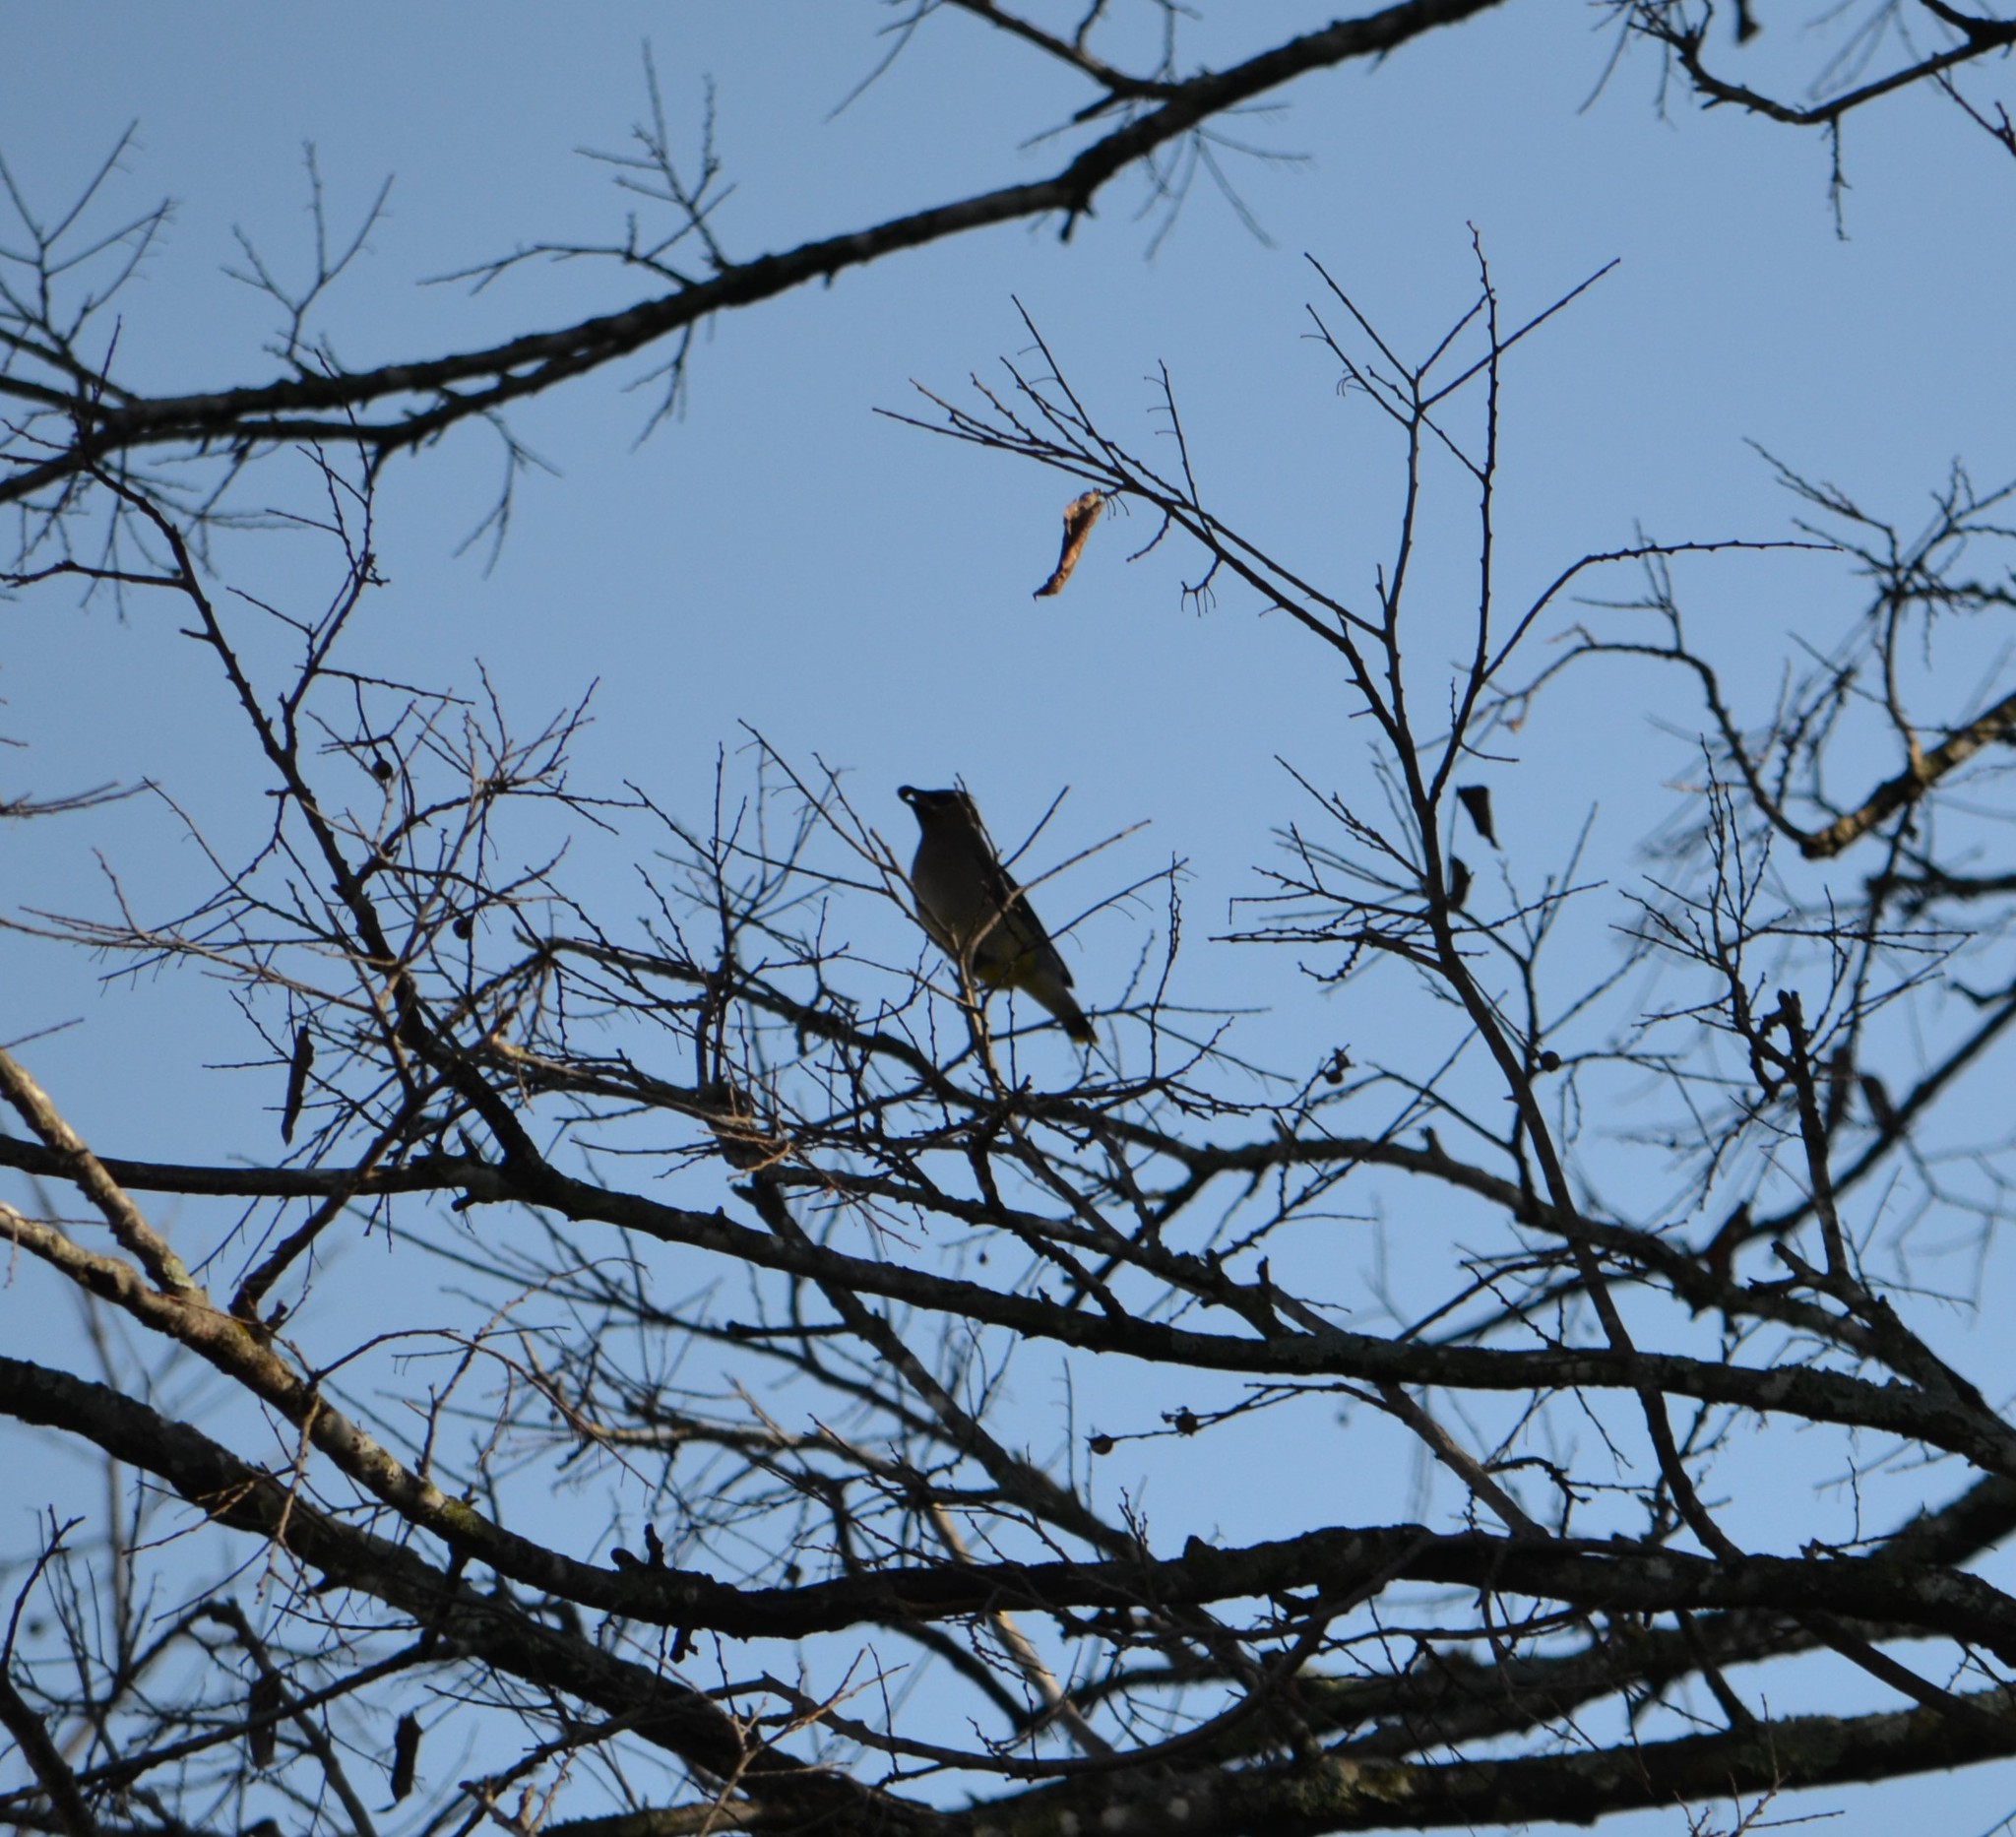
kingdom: Animalia
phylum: Chordata
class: Aves
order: Passeriformes
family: Bombycillidae
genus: Bombycilla
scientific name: Bombycilla cedrorum
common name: Cedar waxwing
